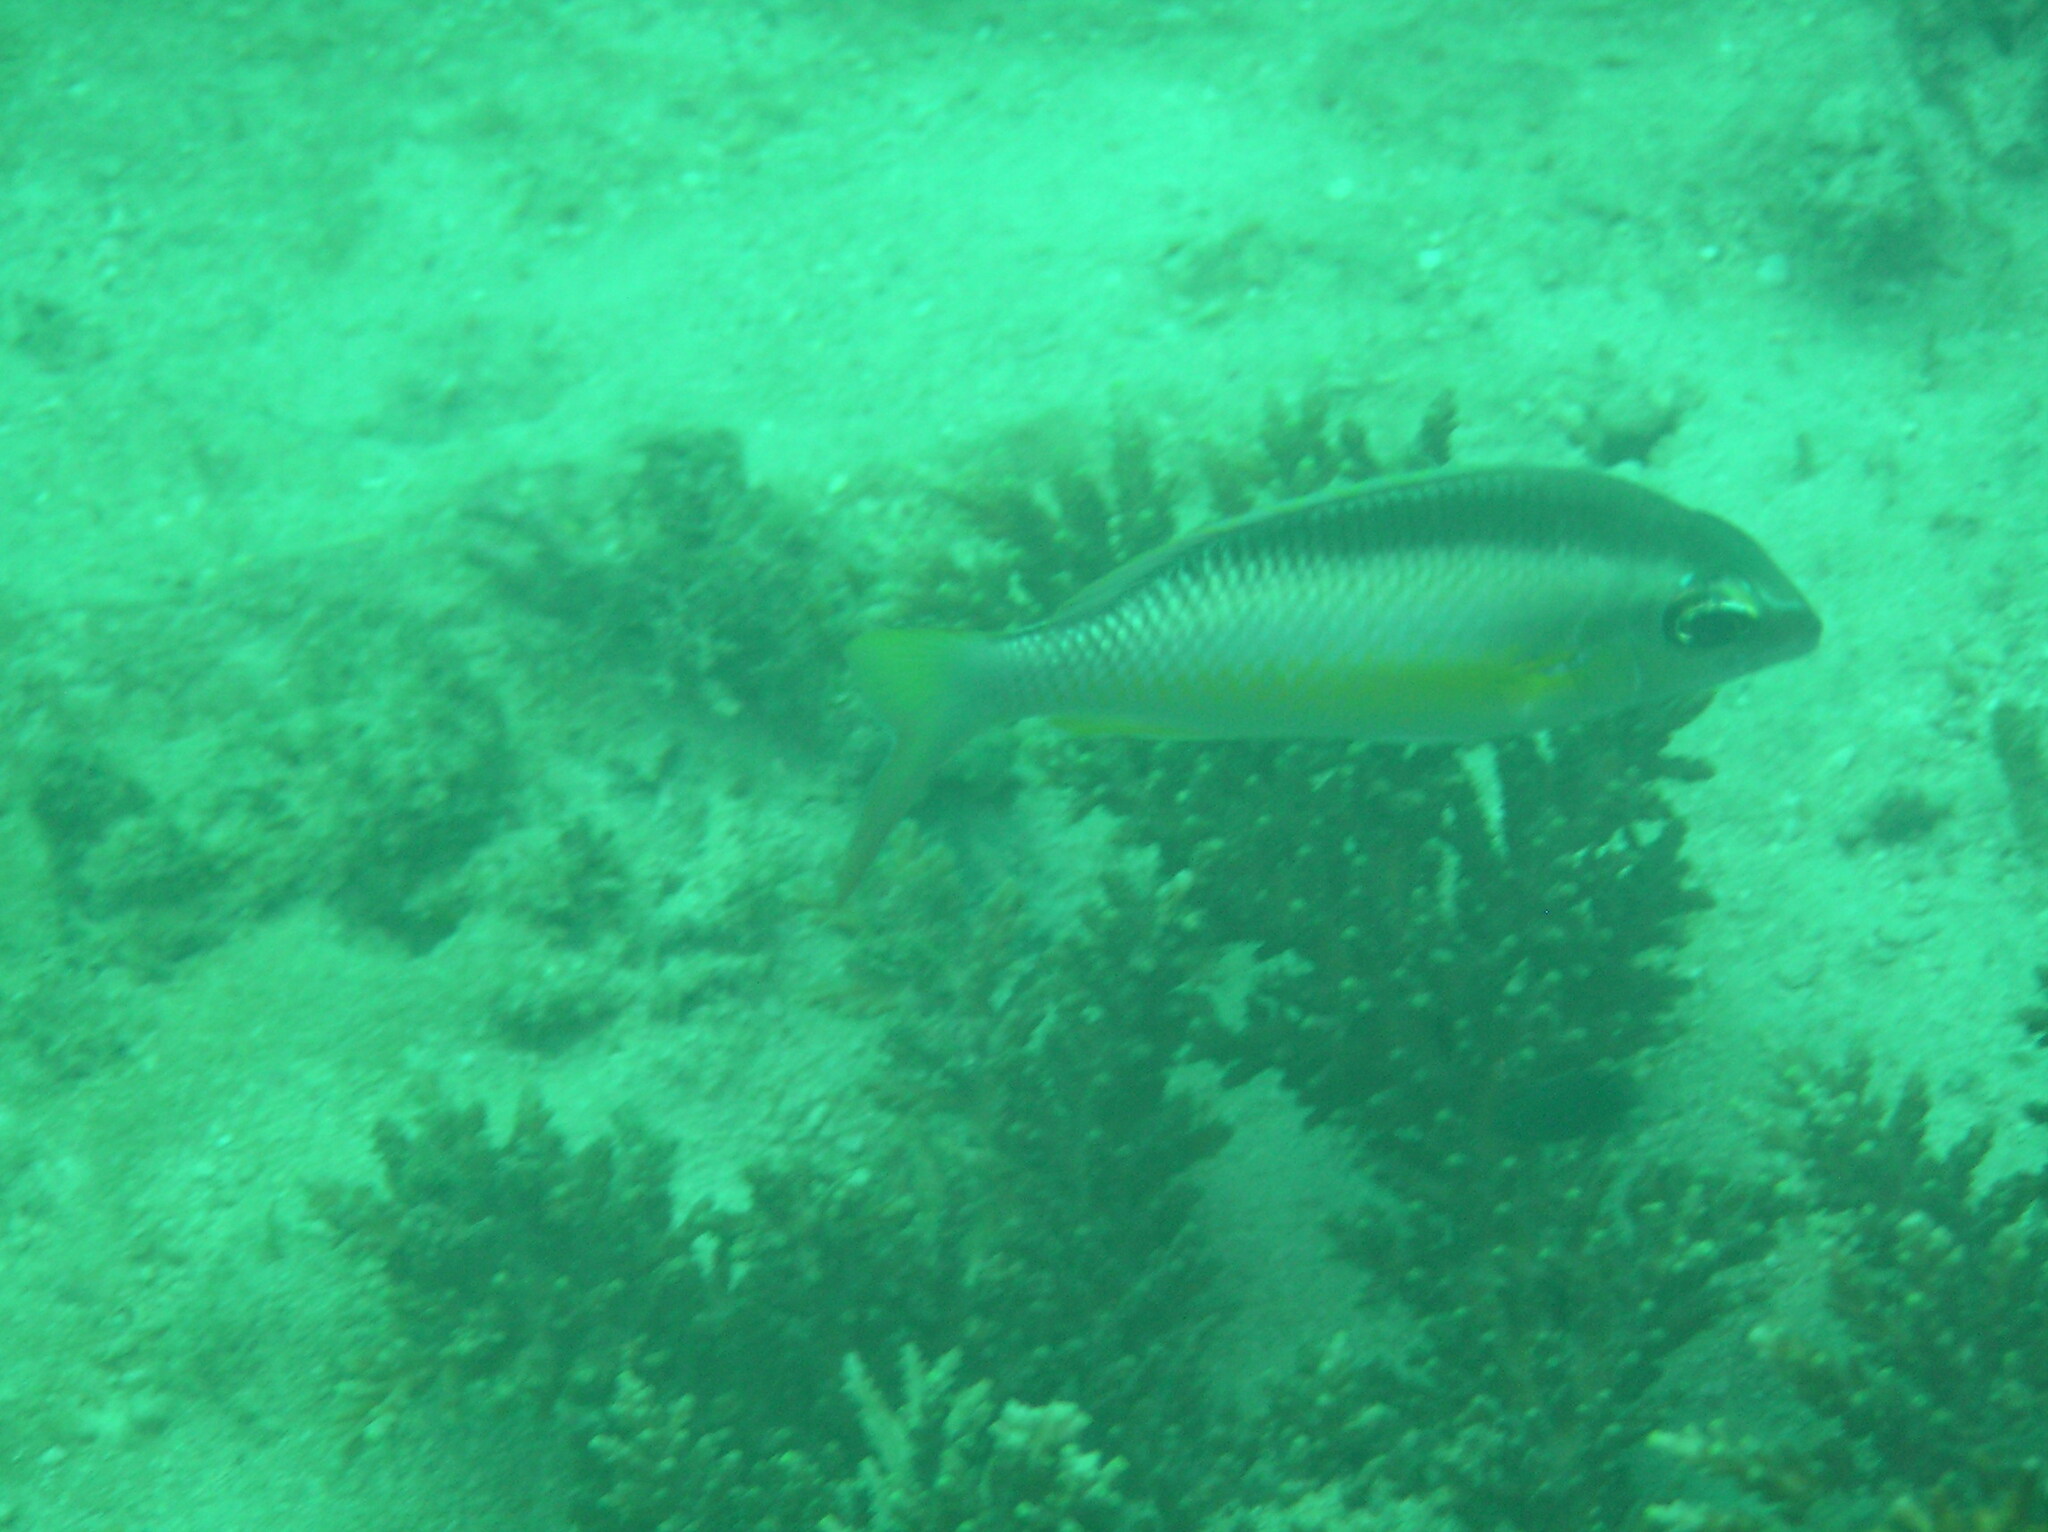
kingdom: Animalia
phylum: Chordata
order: Perciformes
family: Nemipteridae
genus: Scolopsis
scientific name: Scolopsis margaritifera
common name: Pearly monocle bream
